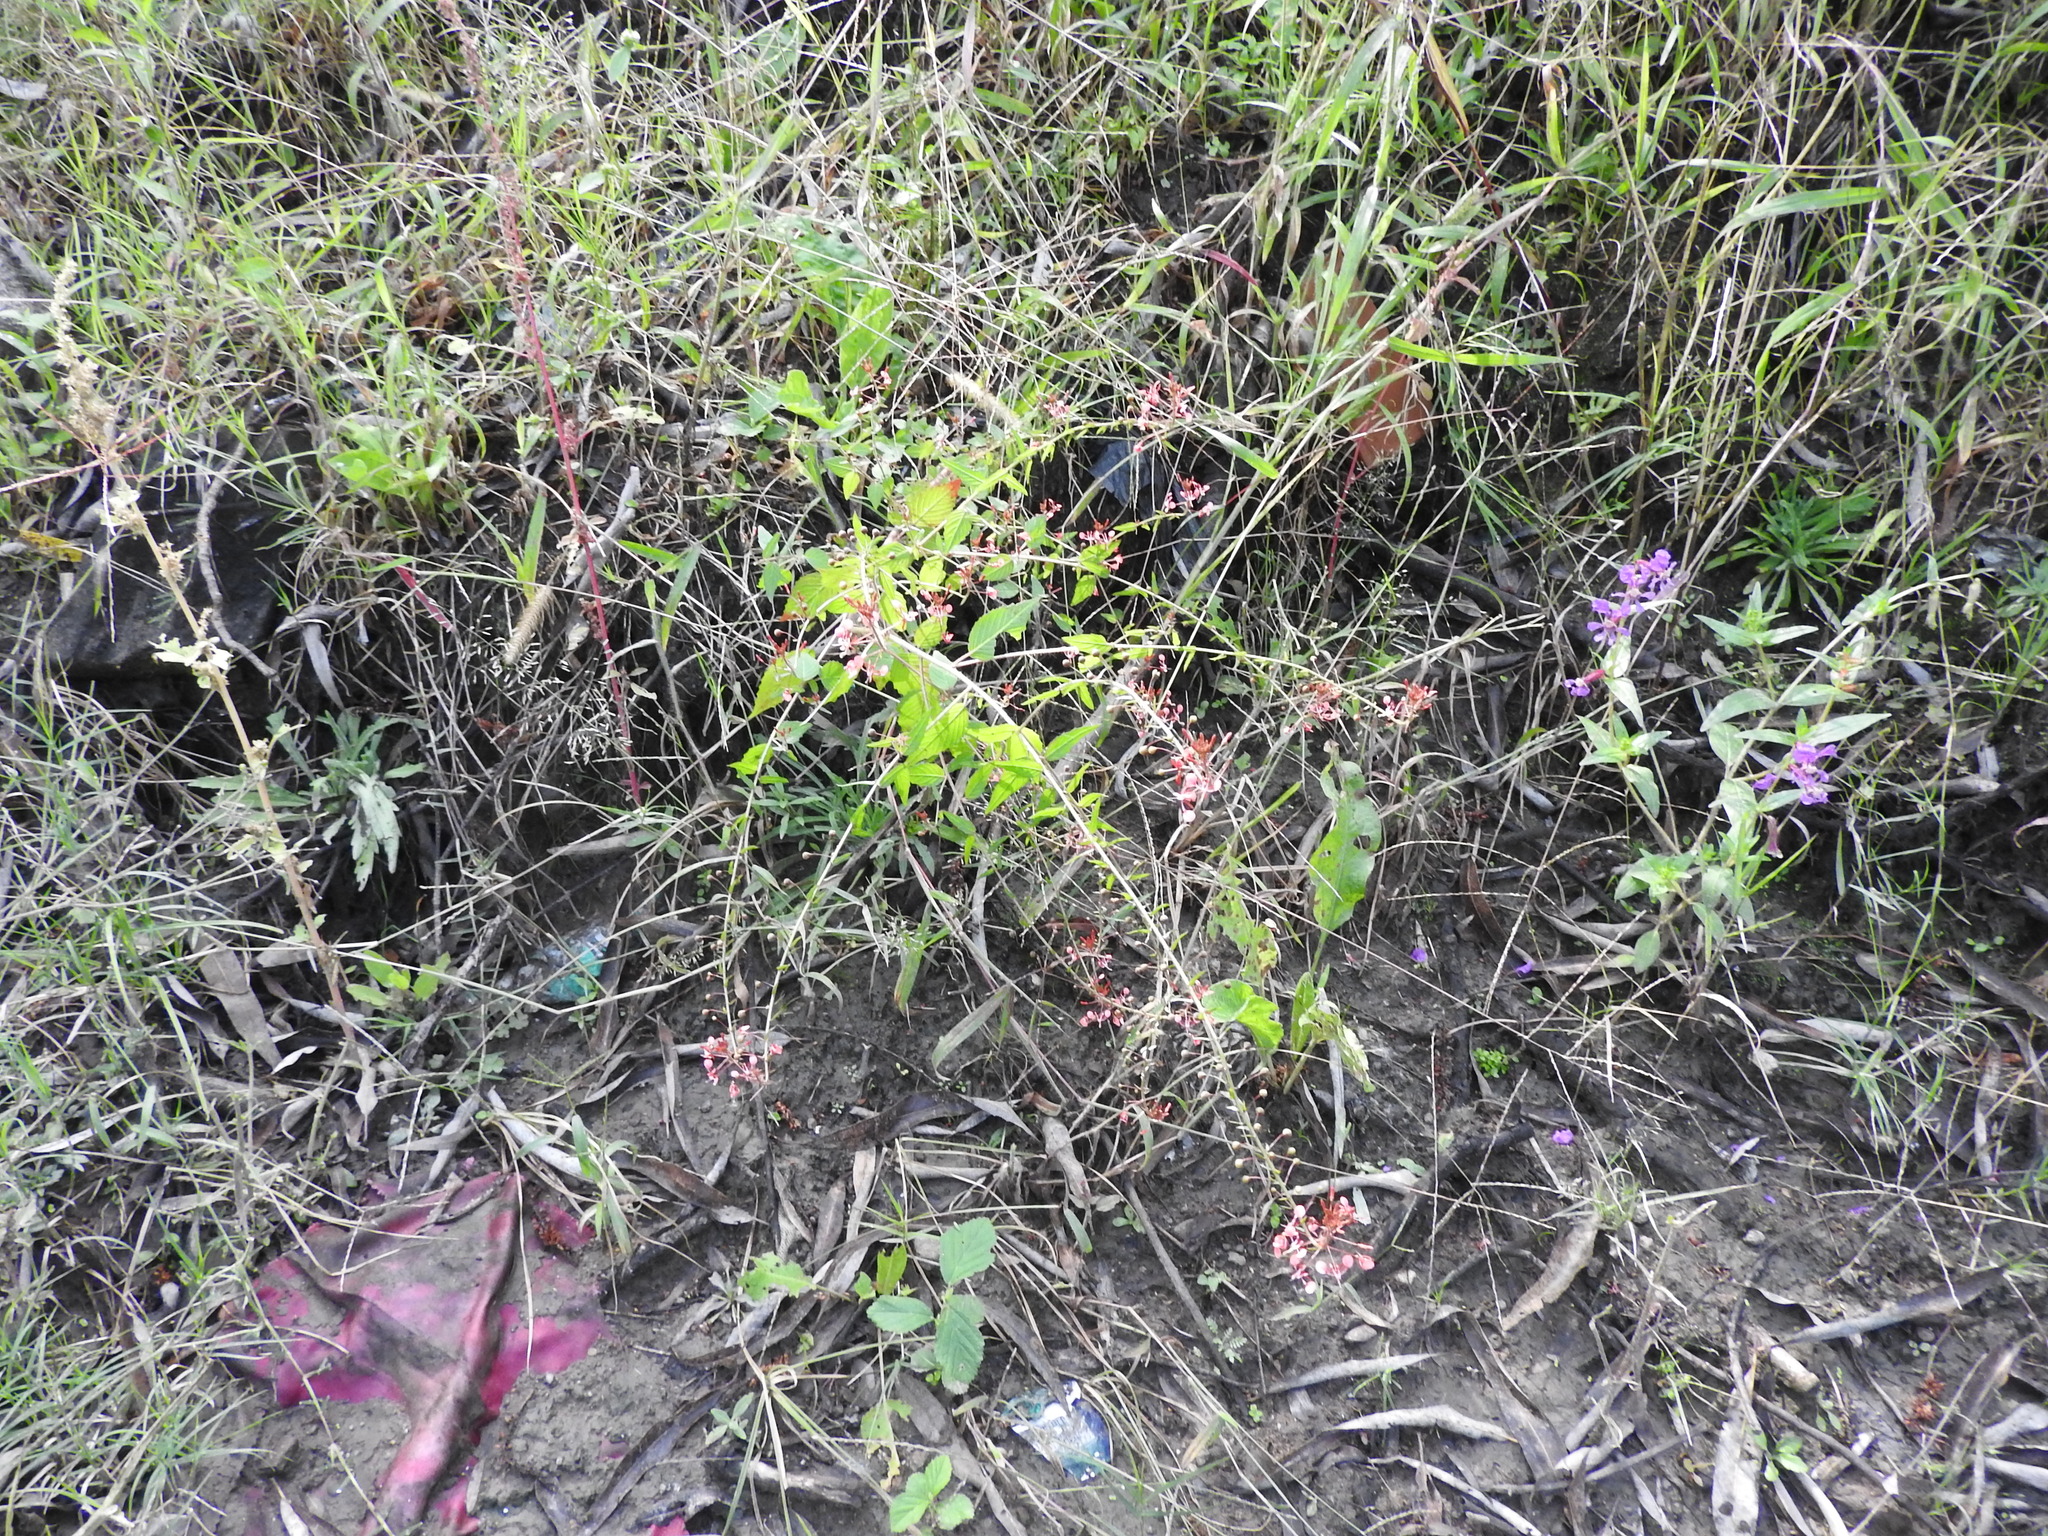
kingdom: Plantae
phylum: Tracheophyta
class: Magnoliopsida
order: Myrtales
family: Onagraceae
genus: Lopezia
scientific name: Lopezia racemosa
